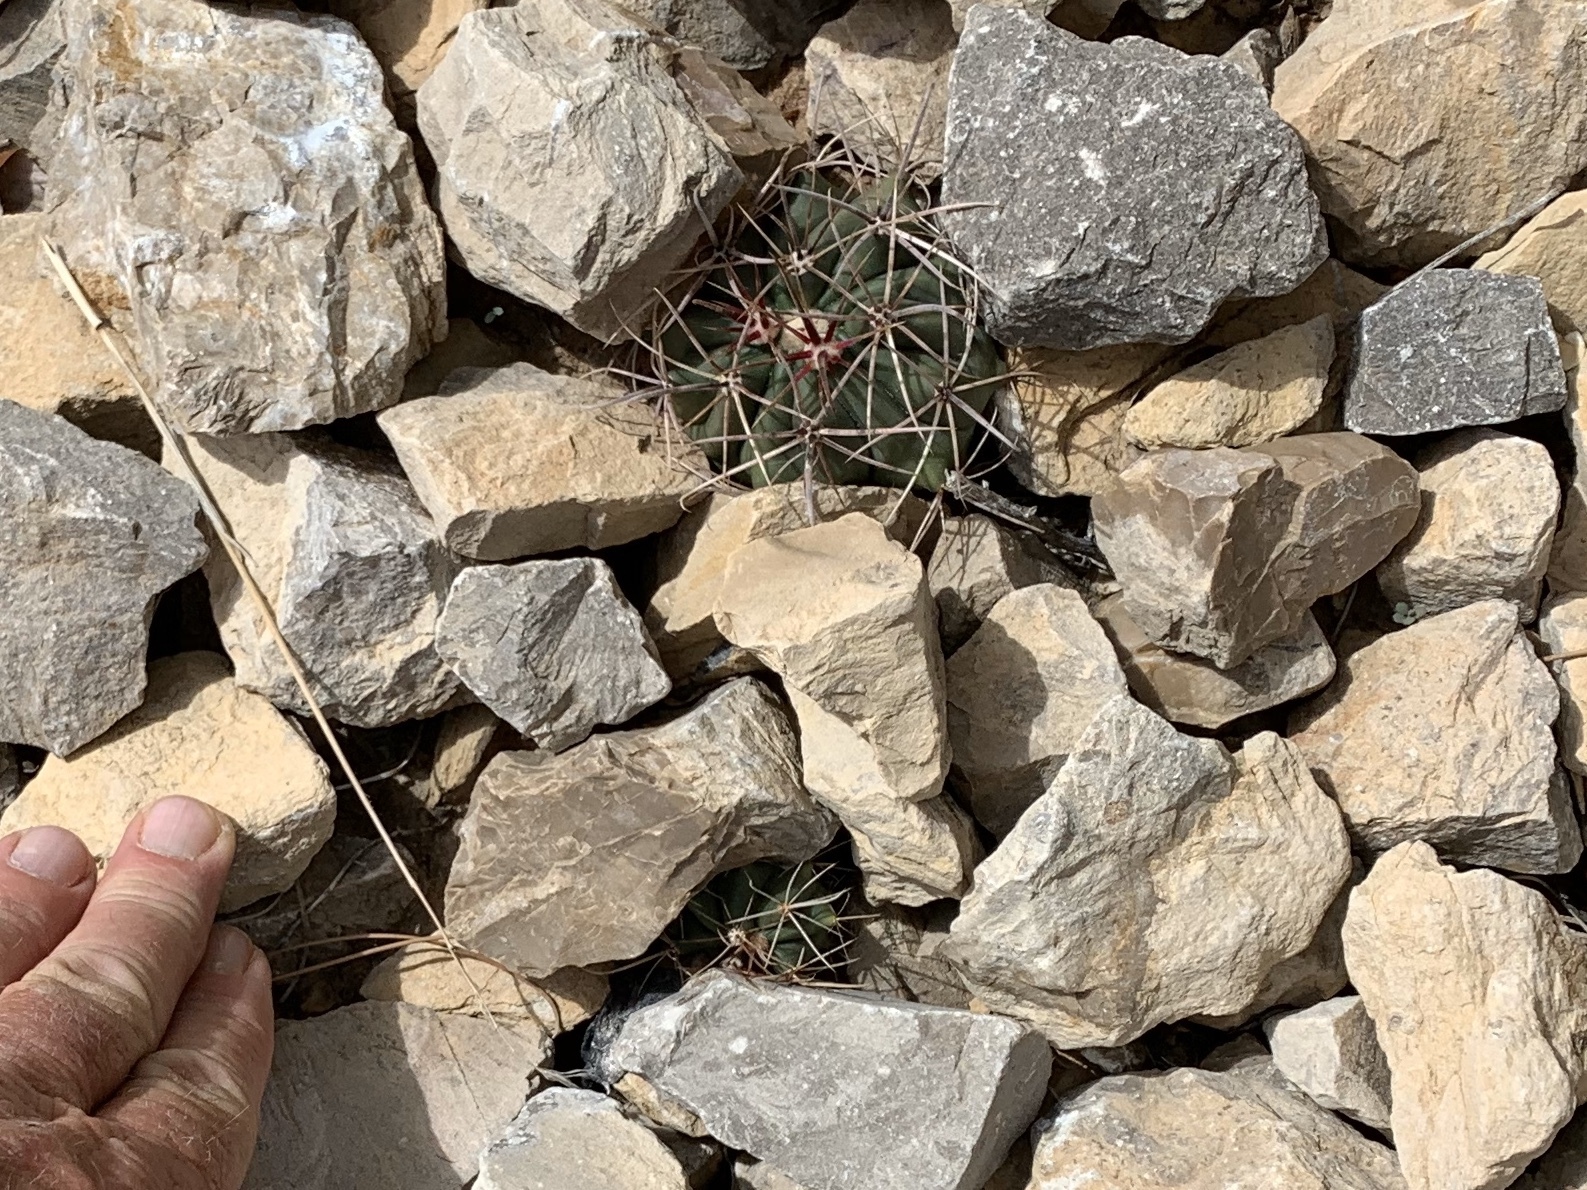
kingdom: Plantae
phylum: Tracheophyta
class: Magnoliopsida
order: Caryophyllales
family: Cactaceae
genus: Ferocactus
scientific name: Ferocactus wislizeni
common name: Candy barrel cactus
